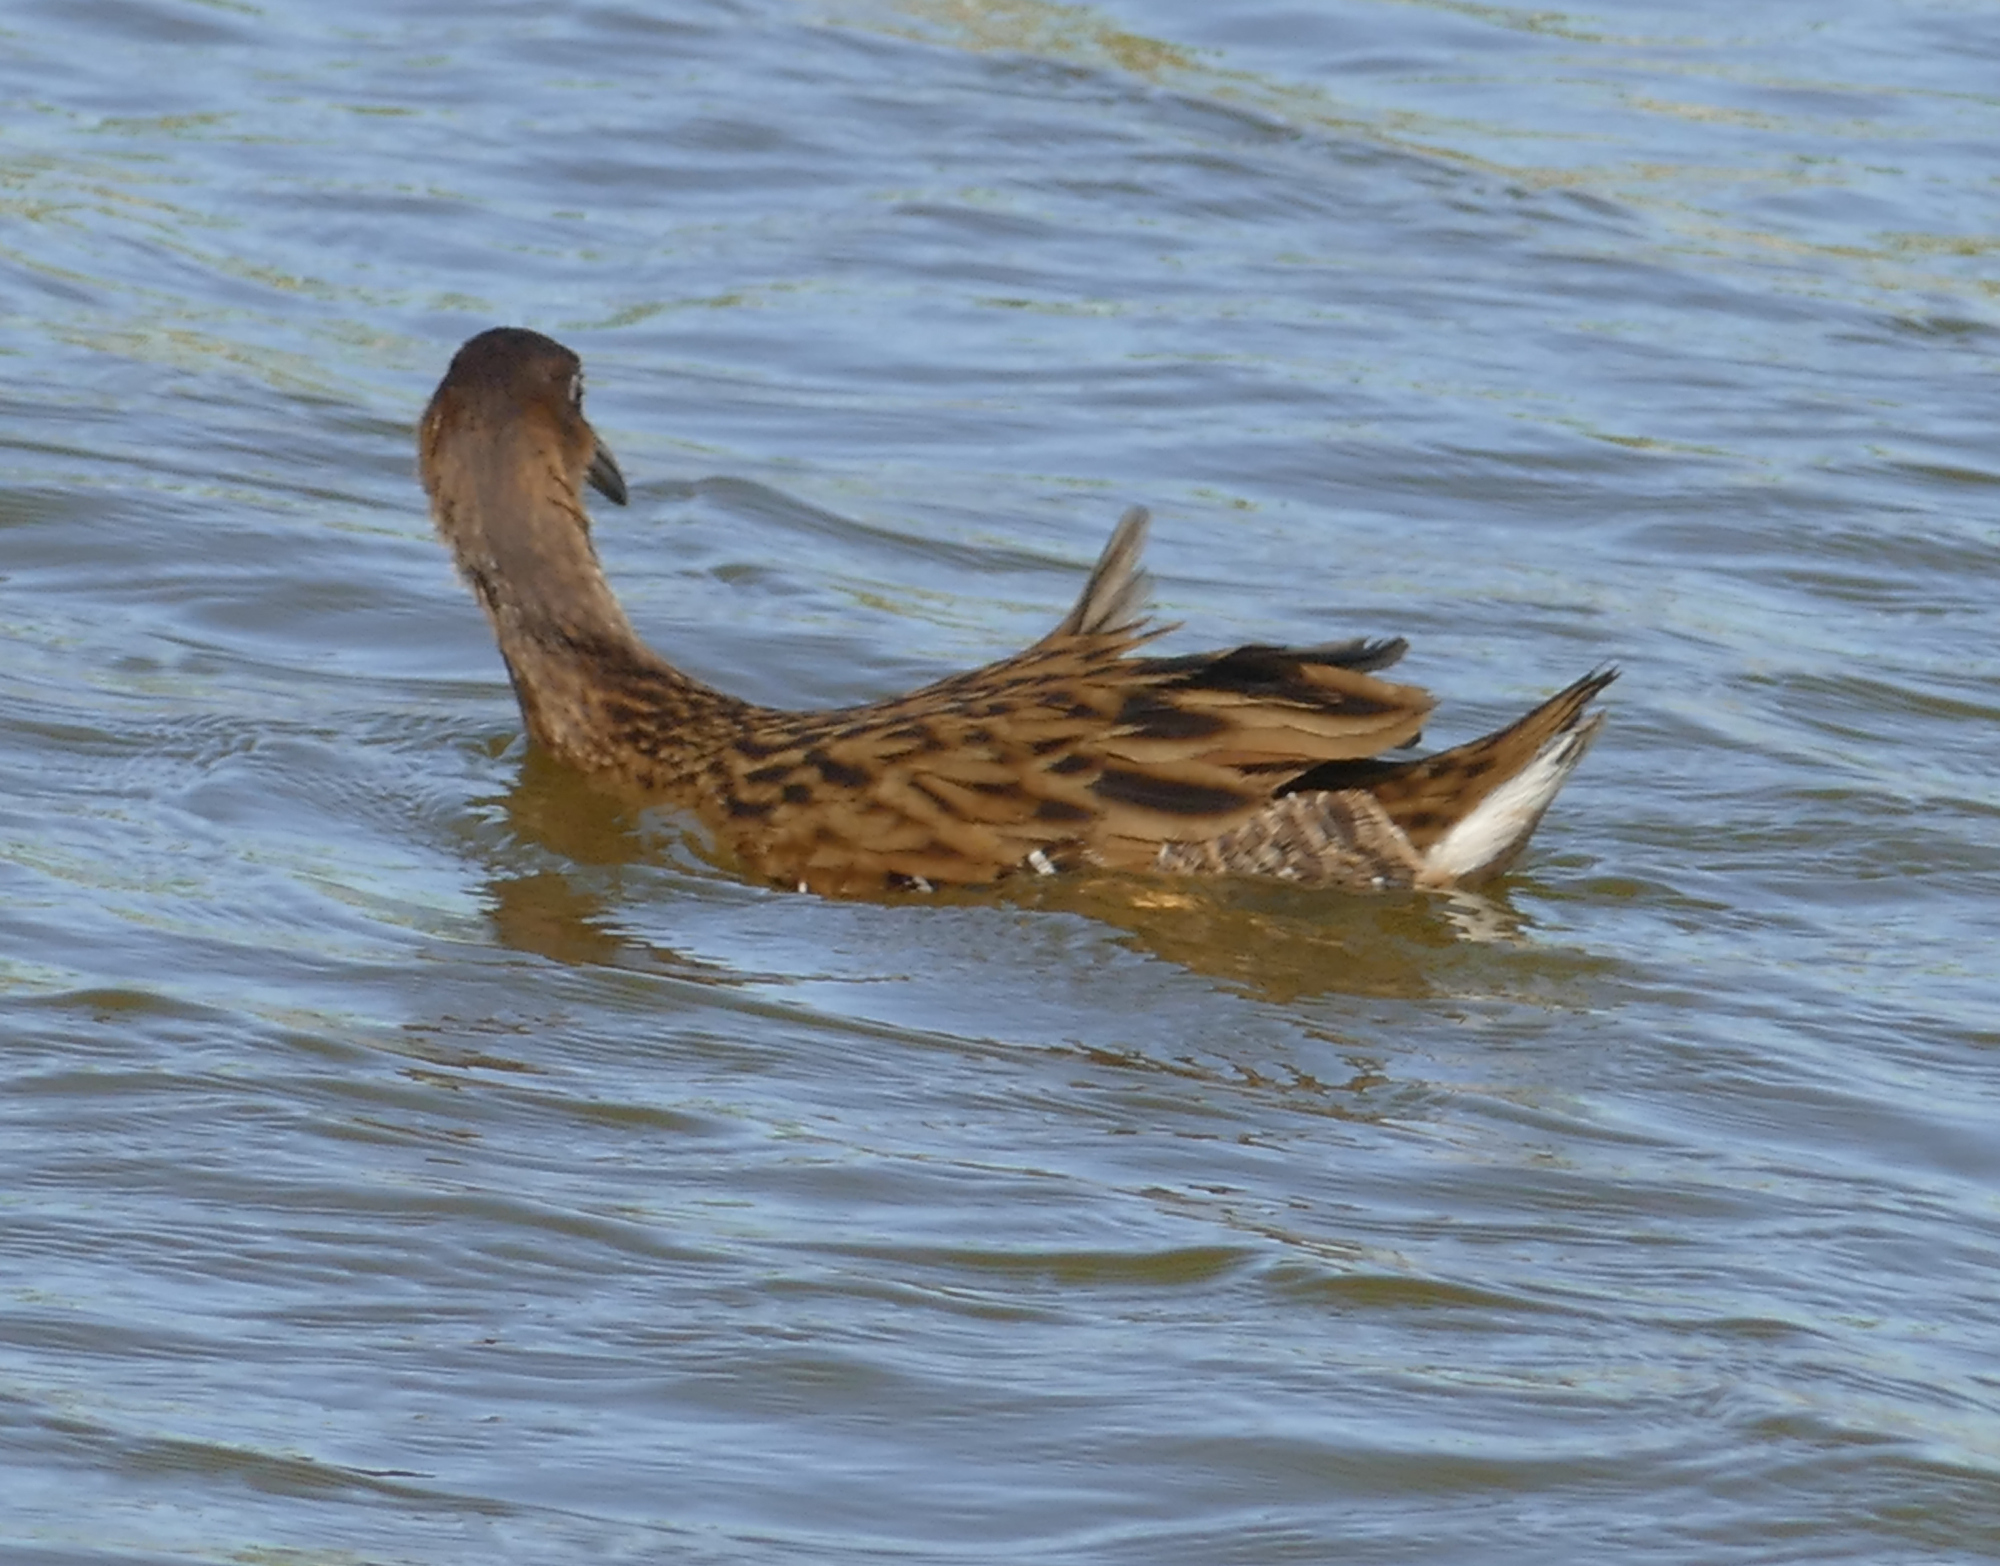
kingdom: Animalia
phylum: Chordata
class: Aves
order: Gruiformes
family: Rallidae
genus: Rallus
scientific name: Rallus elegans
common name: King rail
